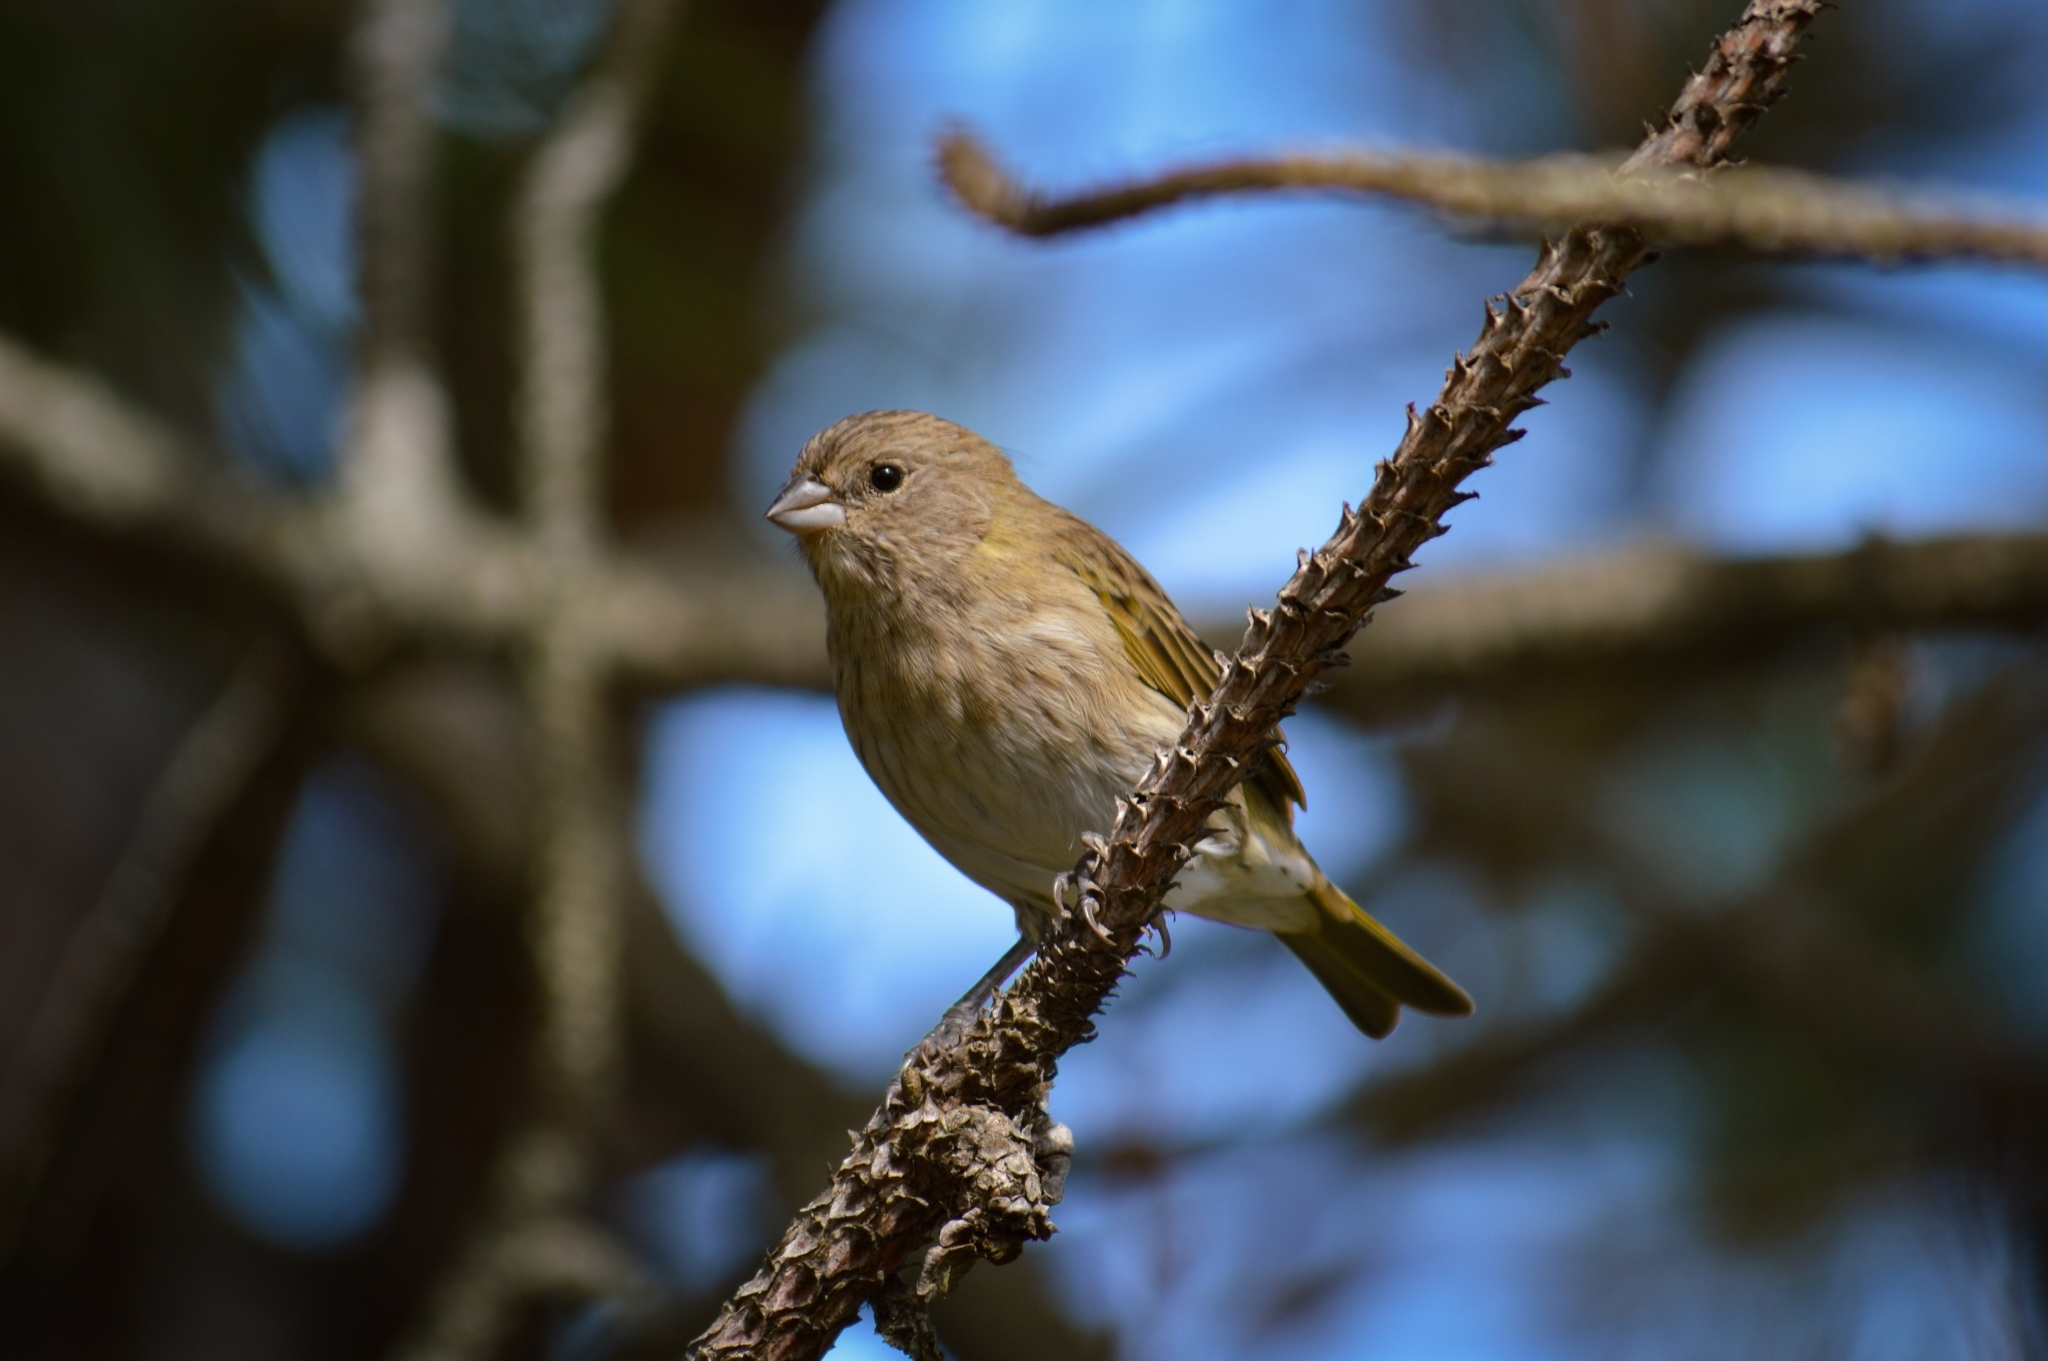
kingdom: Animalia
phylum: Chordata
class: Aves
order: Passeriformes
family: Thraupidae
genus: Sicalis
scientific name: Sicalis flaveola
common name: Saffron finch
